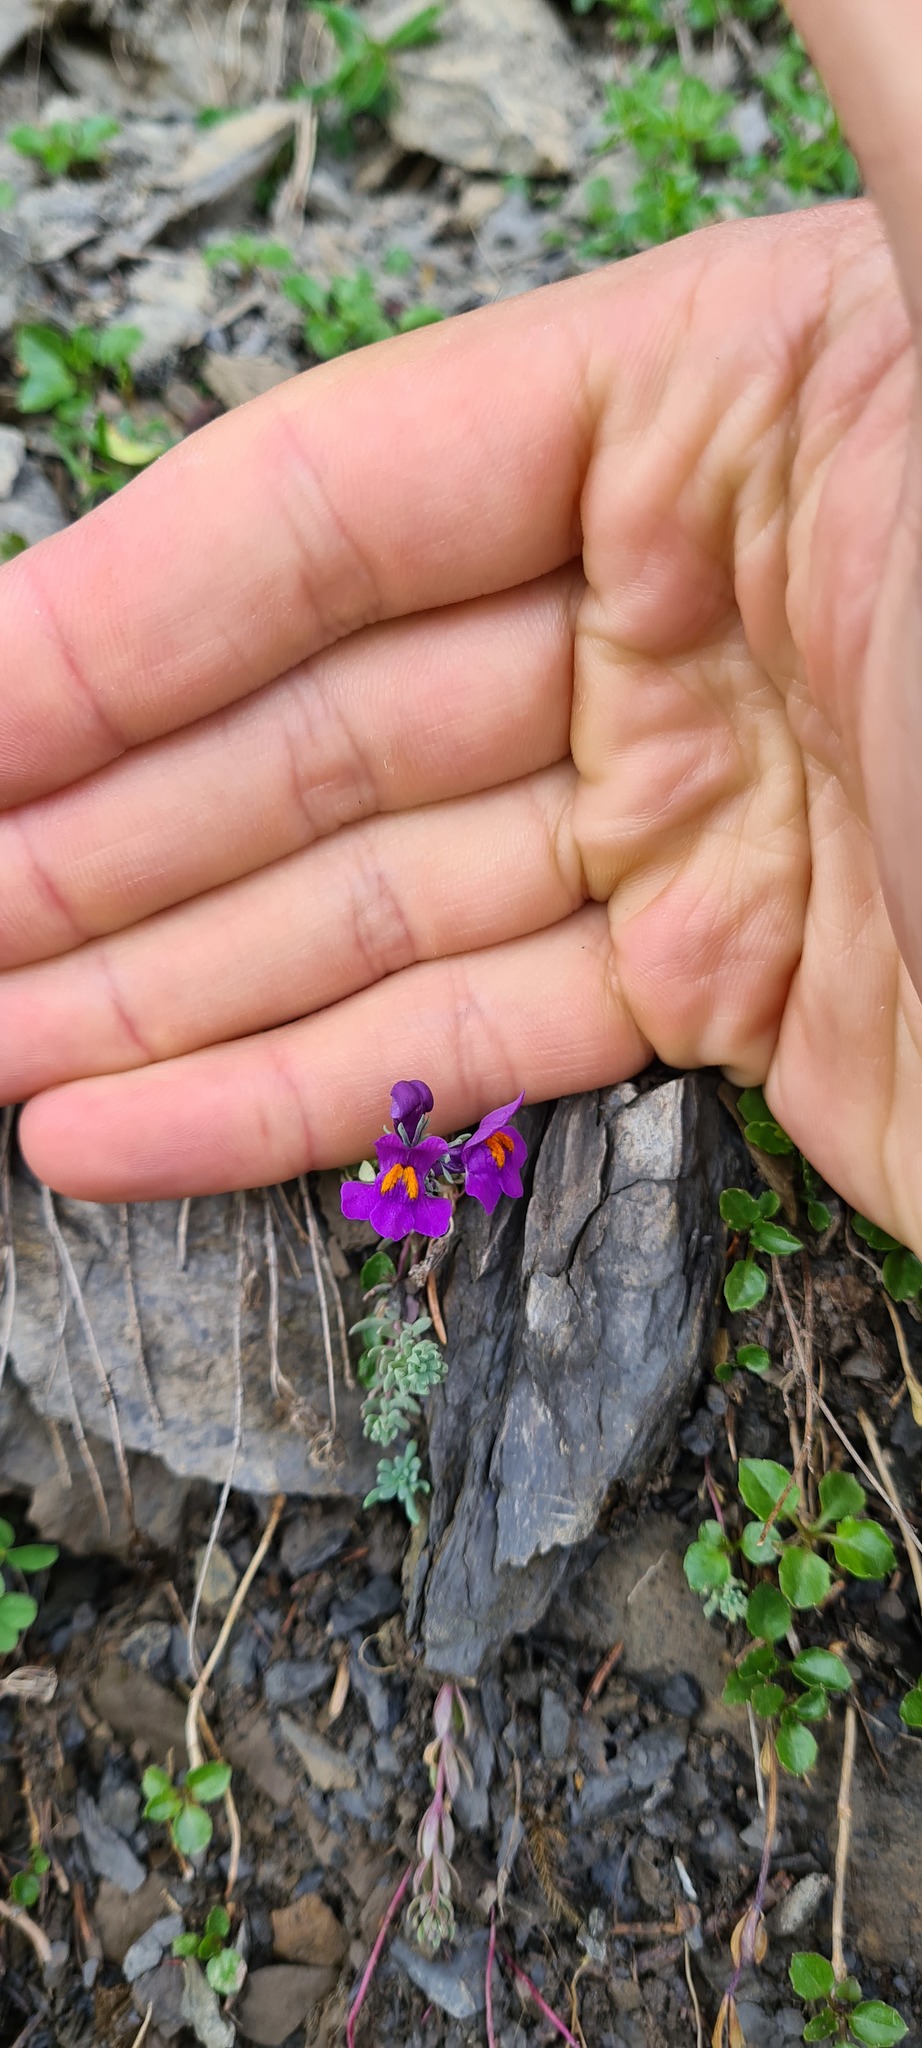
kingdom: Plantae
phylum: Tracheophyta
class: Magnoliopsida
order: Lamiales
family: Plantaginaceae
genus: Linaria
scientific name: Linaria alpina
